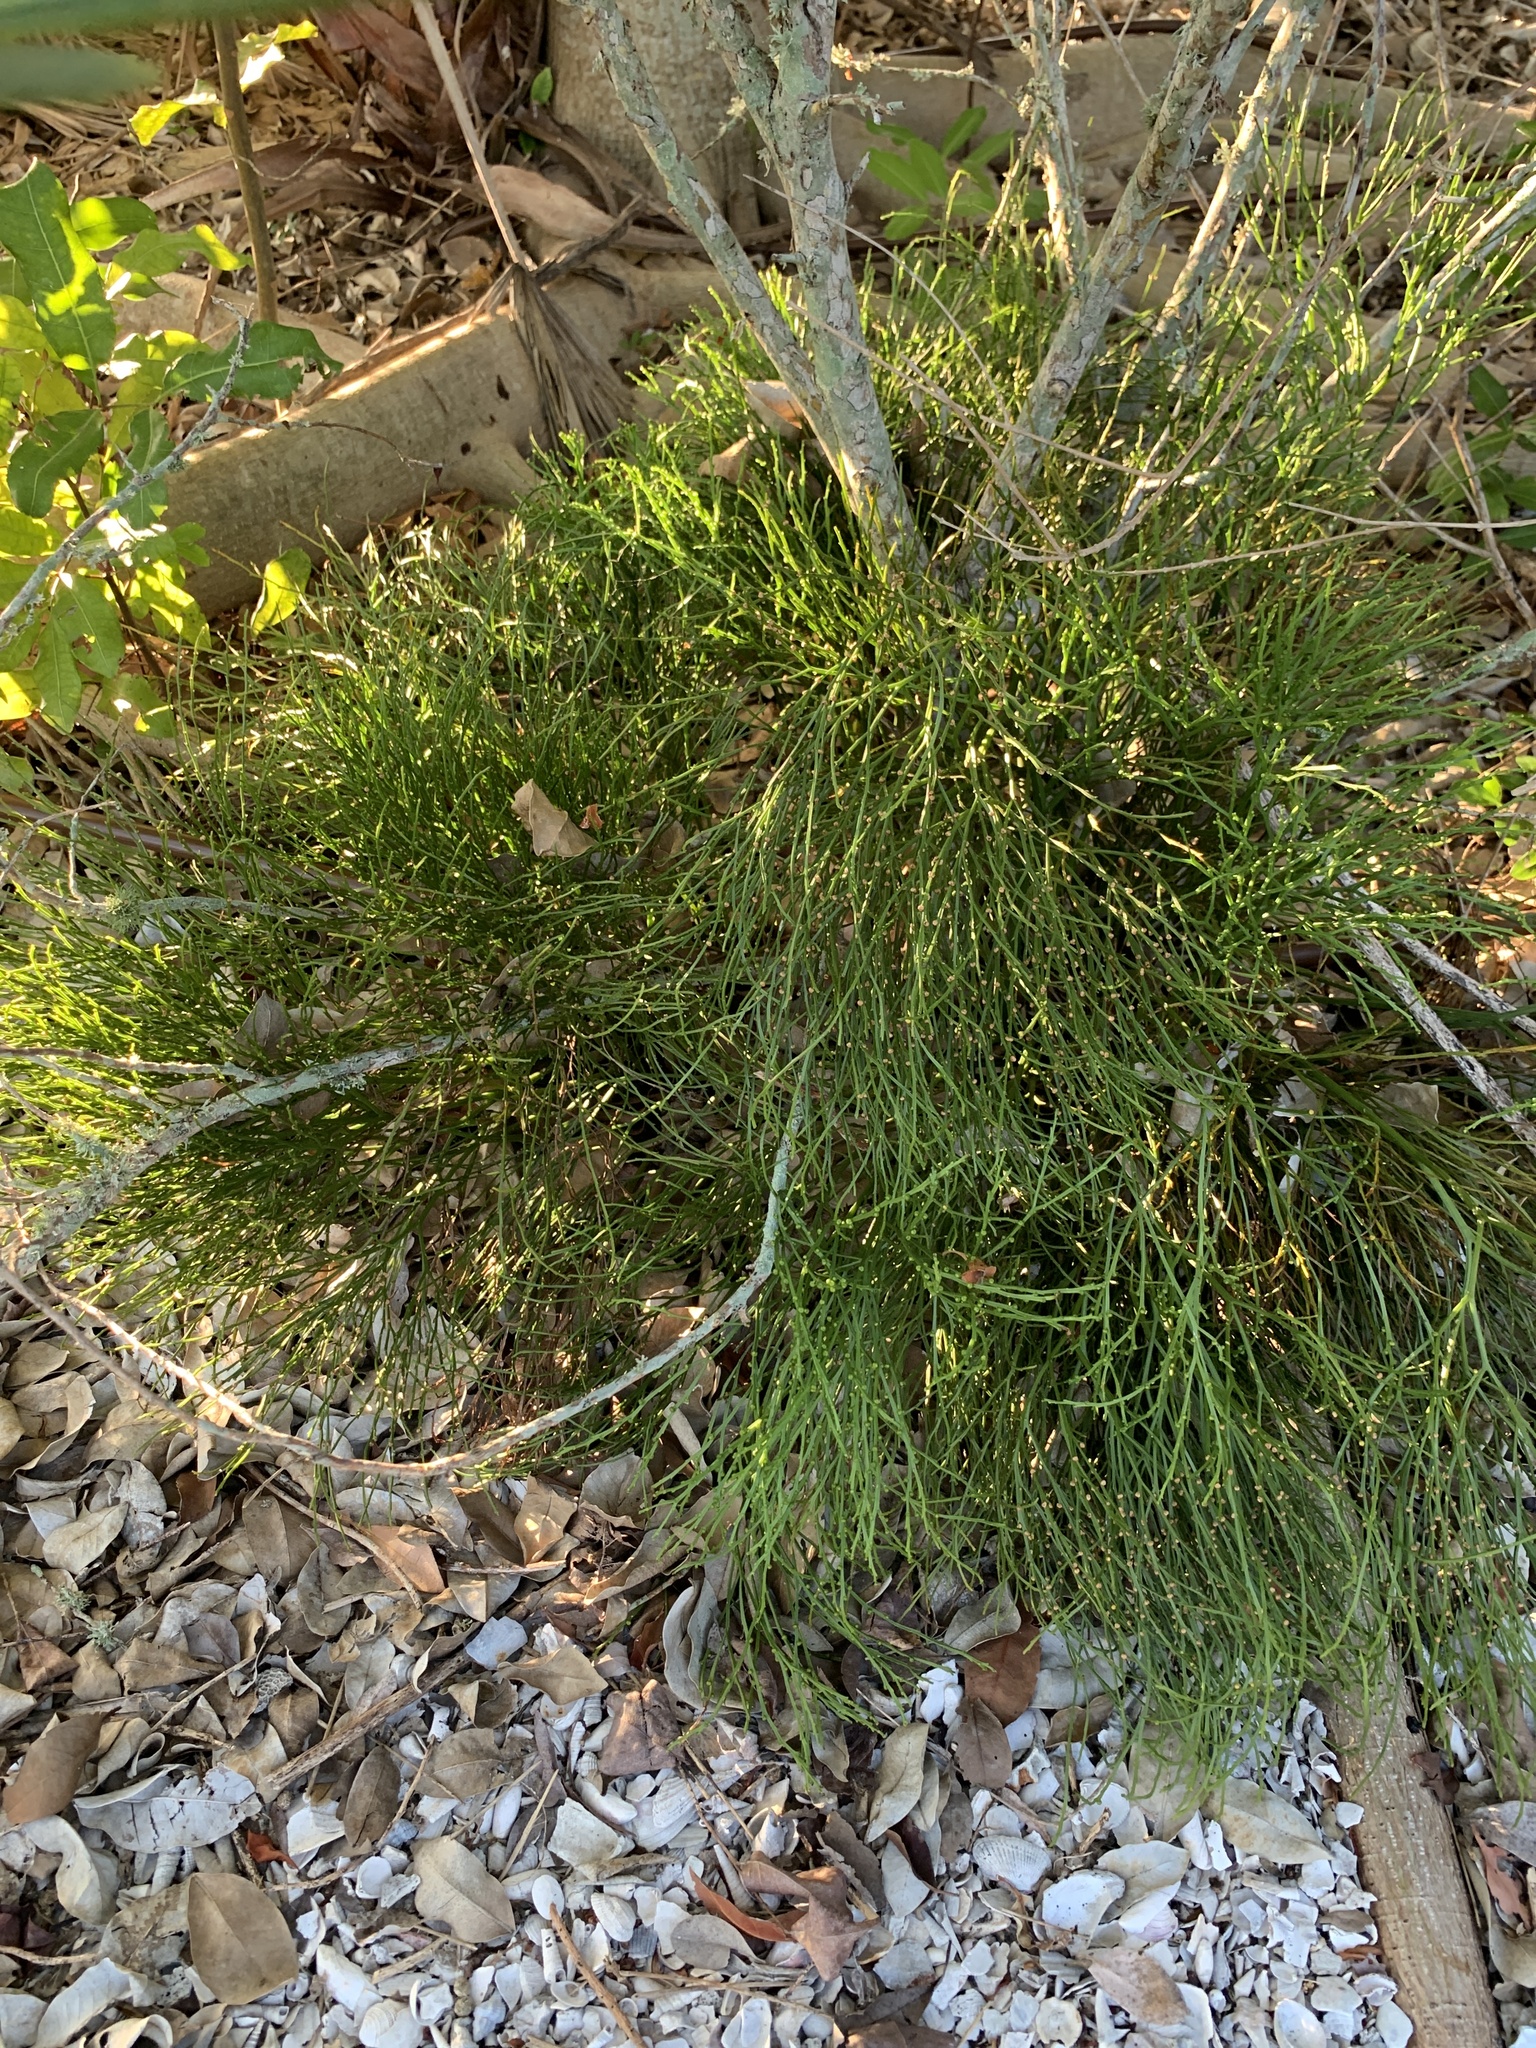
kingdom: Plantae
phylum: Tracheophyta
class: Polypodiopsida
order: Psilotales
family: Psilotaceae
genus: Psilotum
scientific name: Psilotum nudum
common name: Skeleton fork fern
